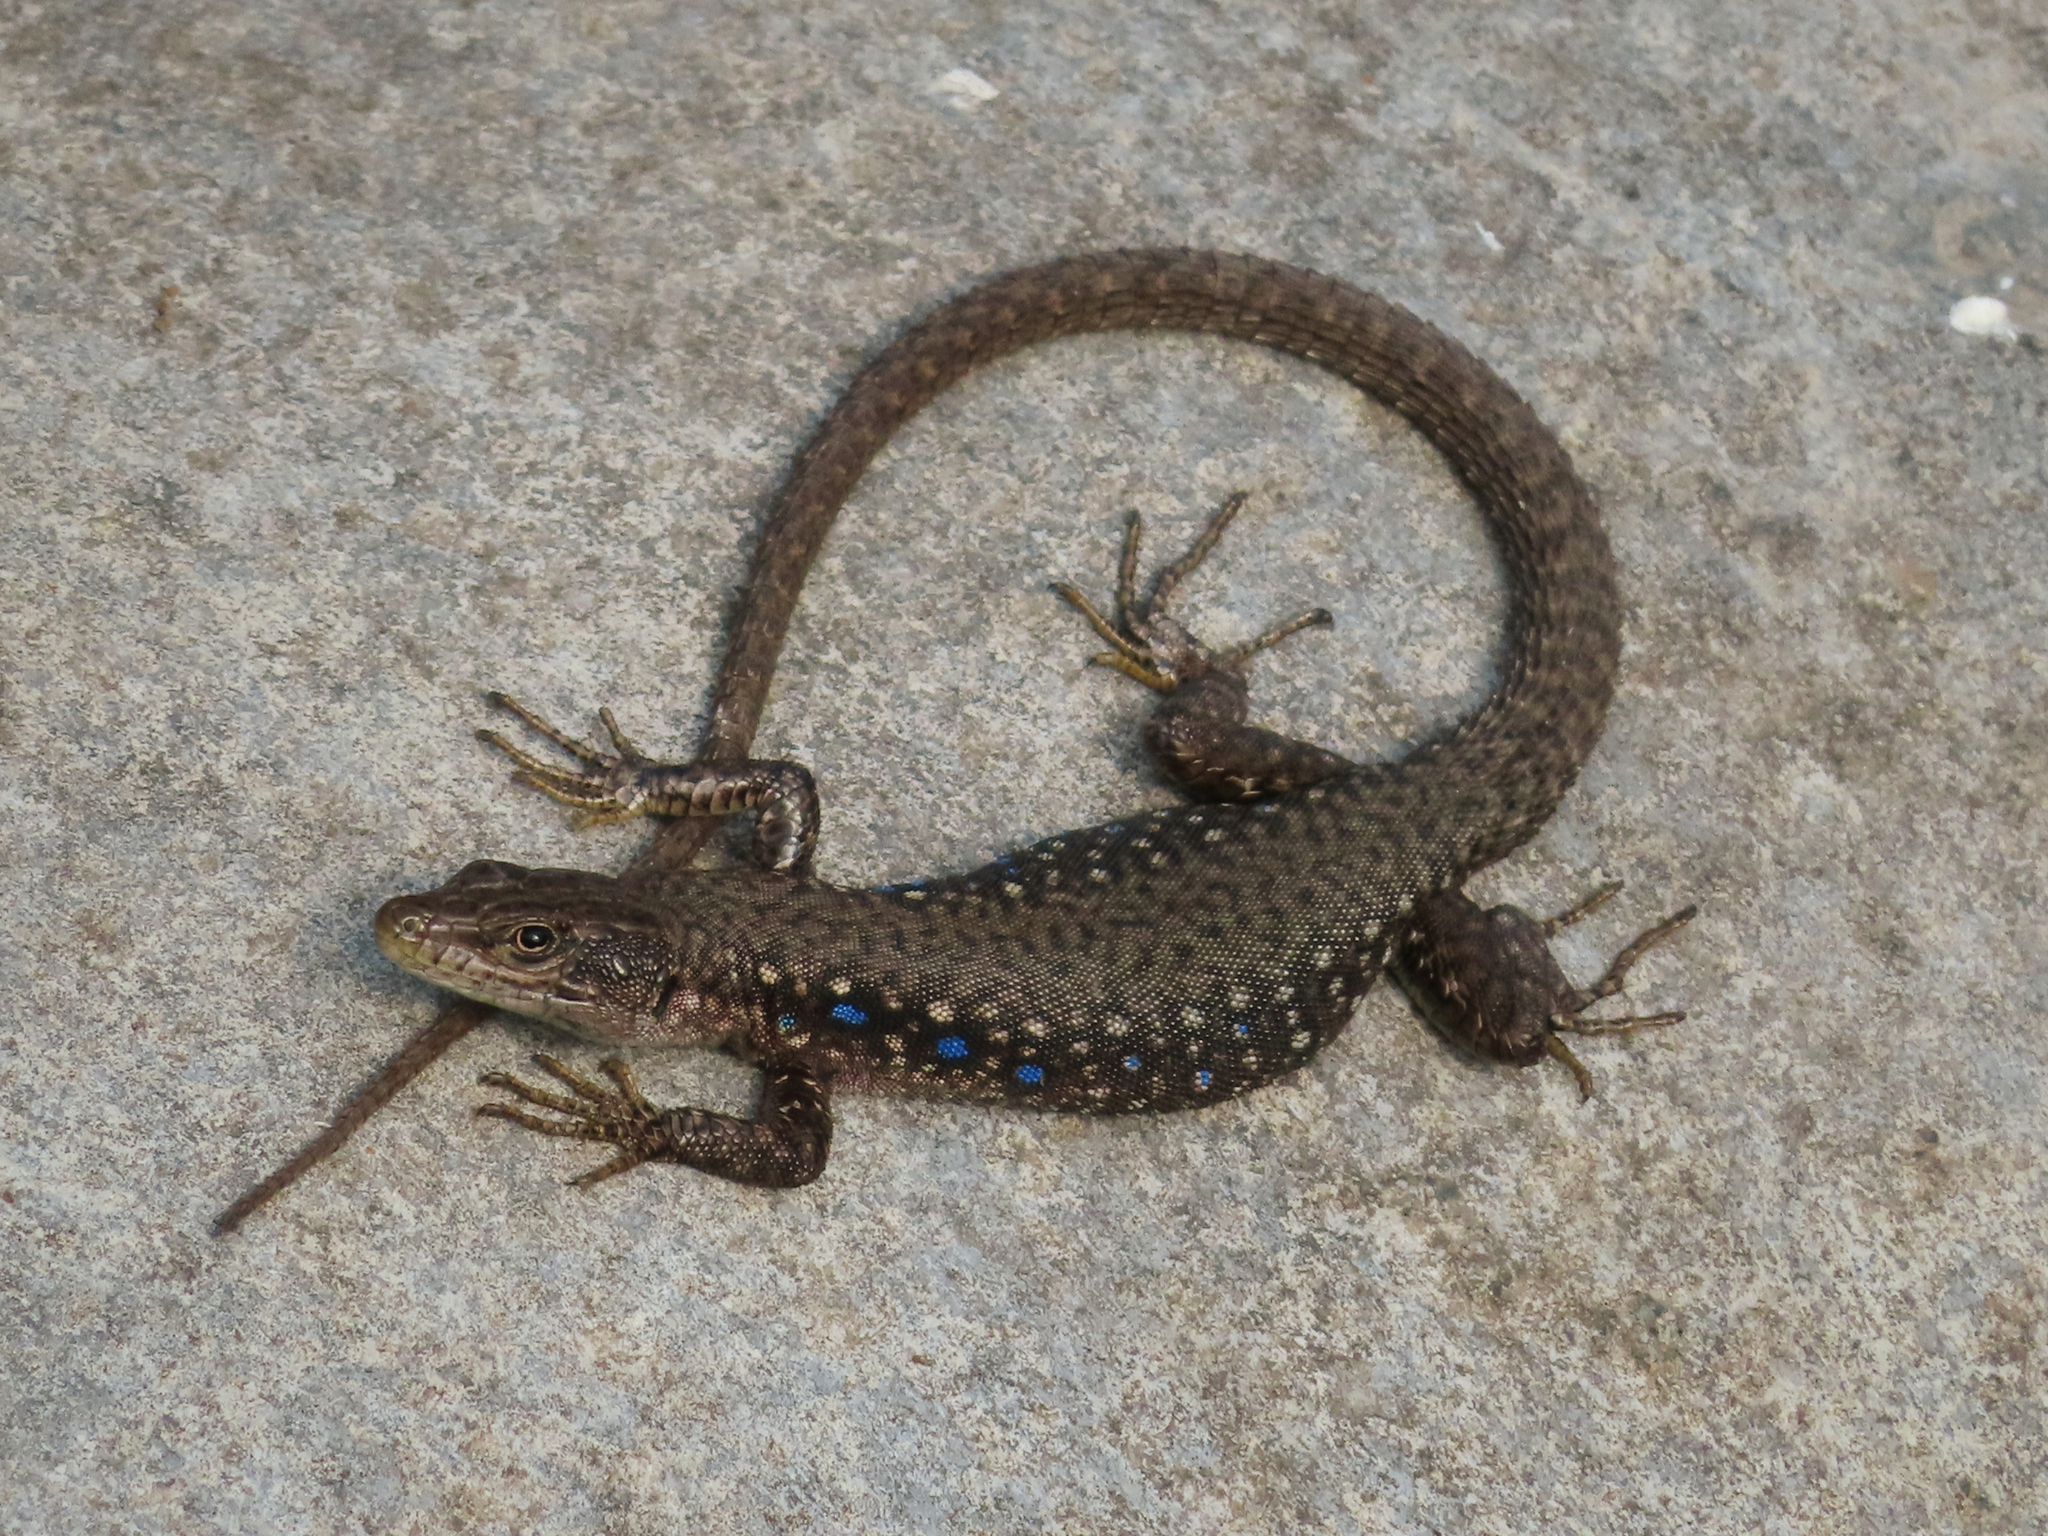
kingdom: Animalia
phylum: Chordata
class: Squamata
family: Lacertidae
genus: Darevskia
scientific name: Darevskia
